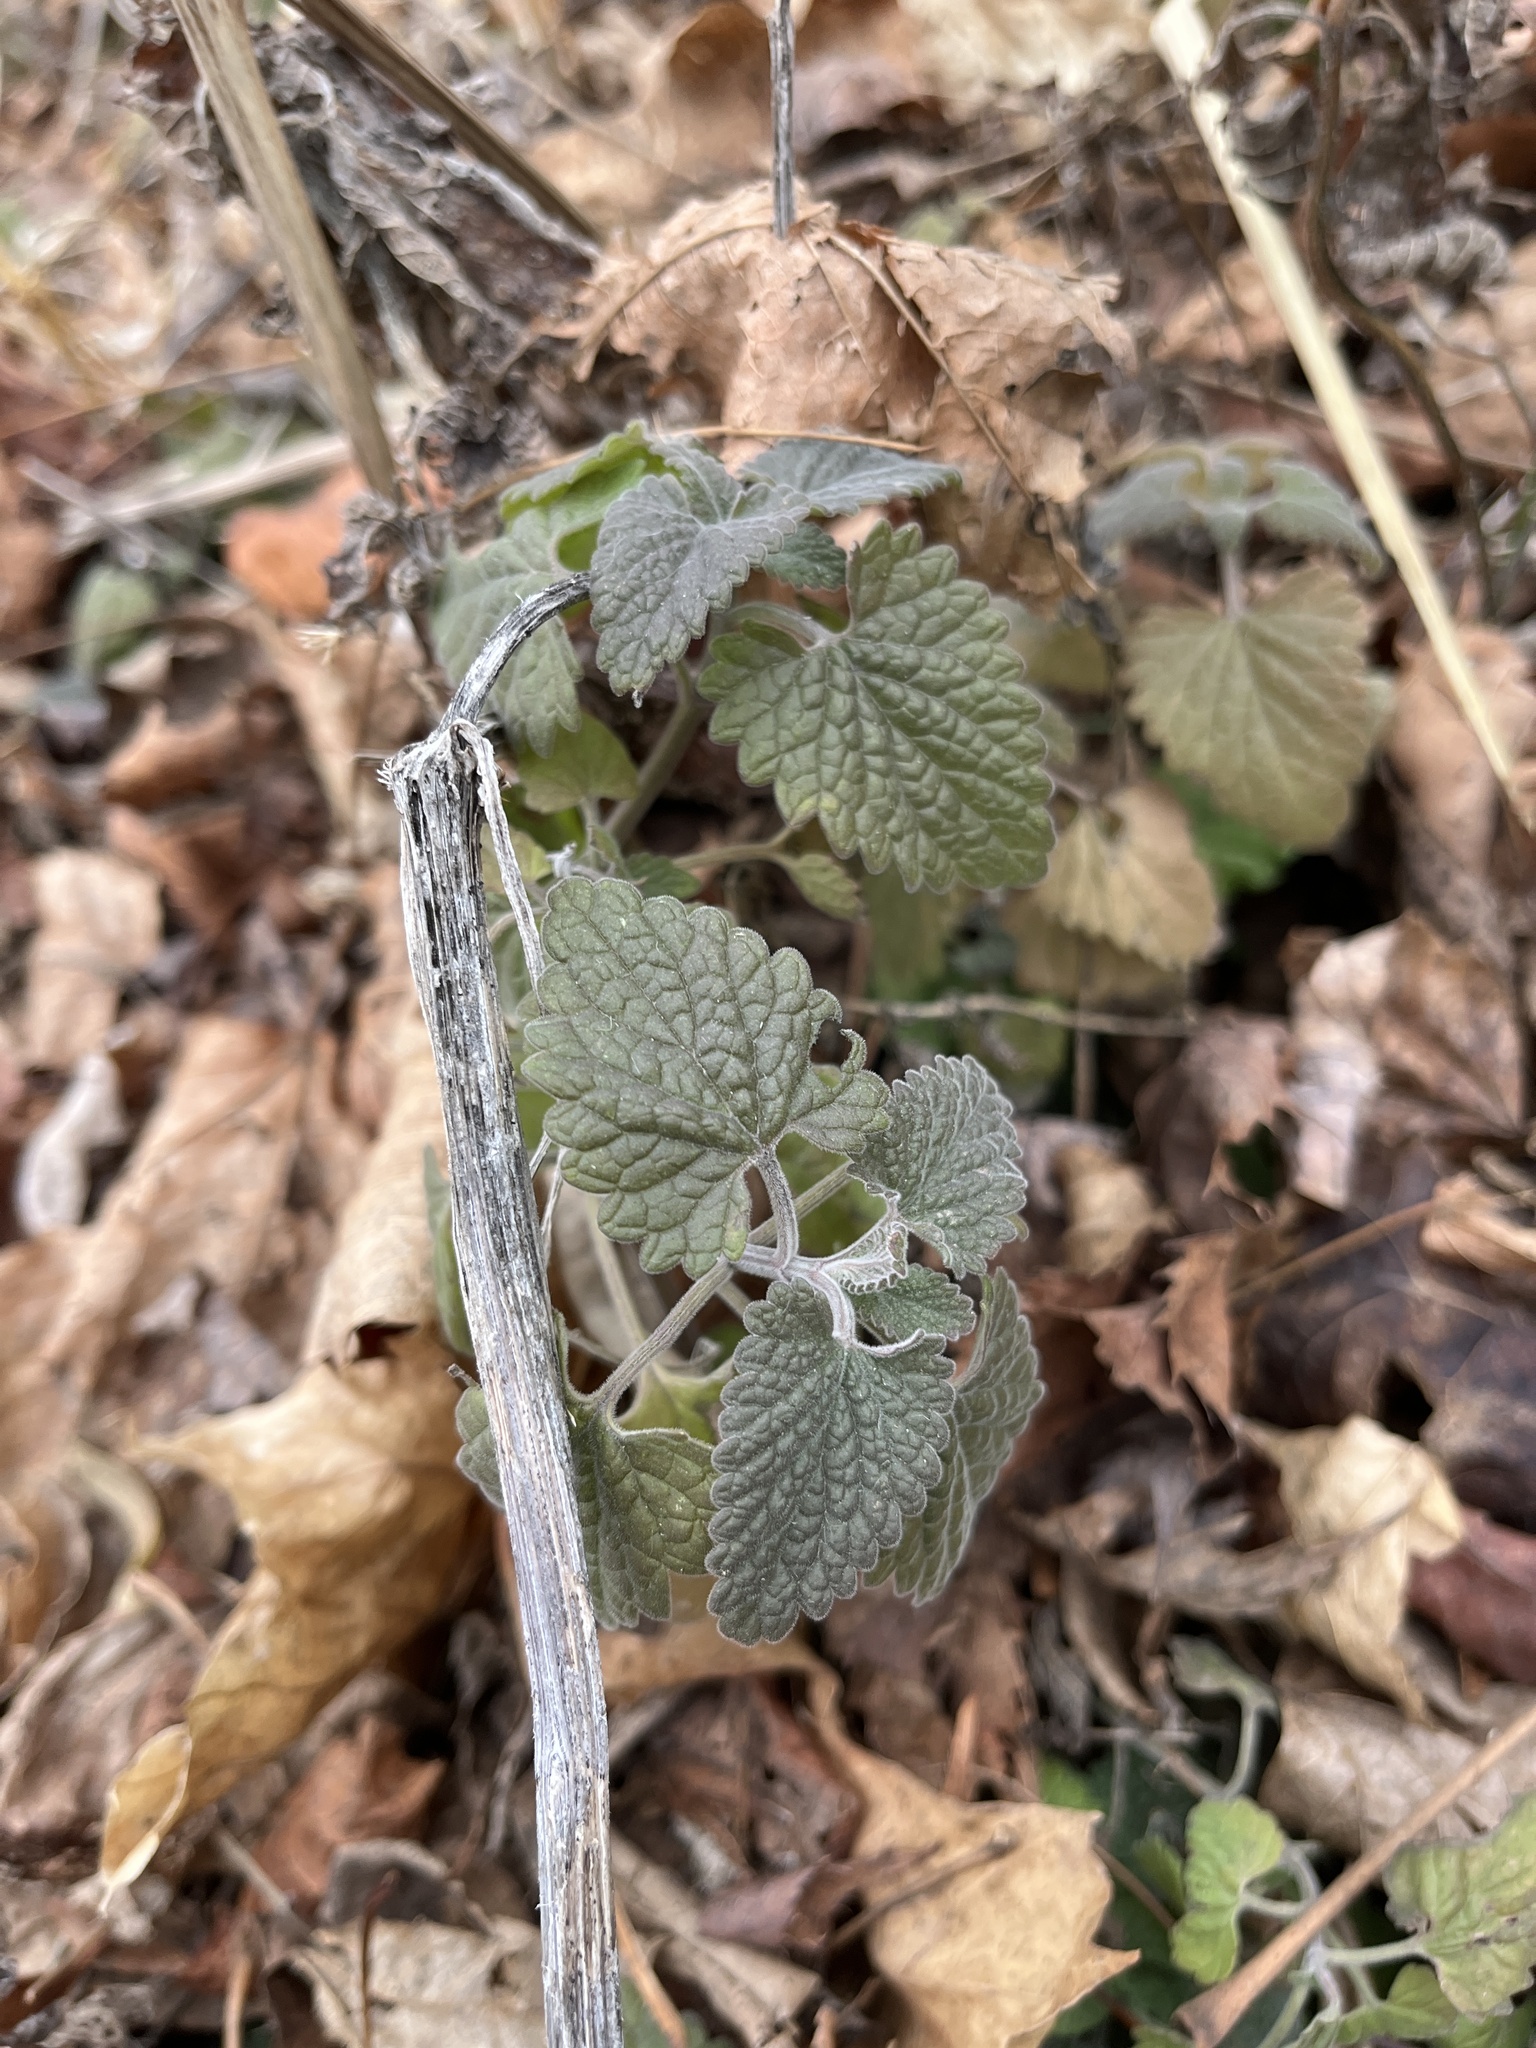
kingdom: Plantae
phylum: Tracheophyta
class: Magnoliopsida
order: Lamiales
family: Lamiaceae
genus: Nepeta
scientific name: Nepeta cataria
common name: Catnip
